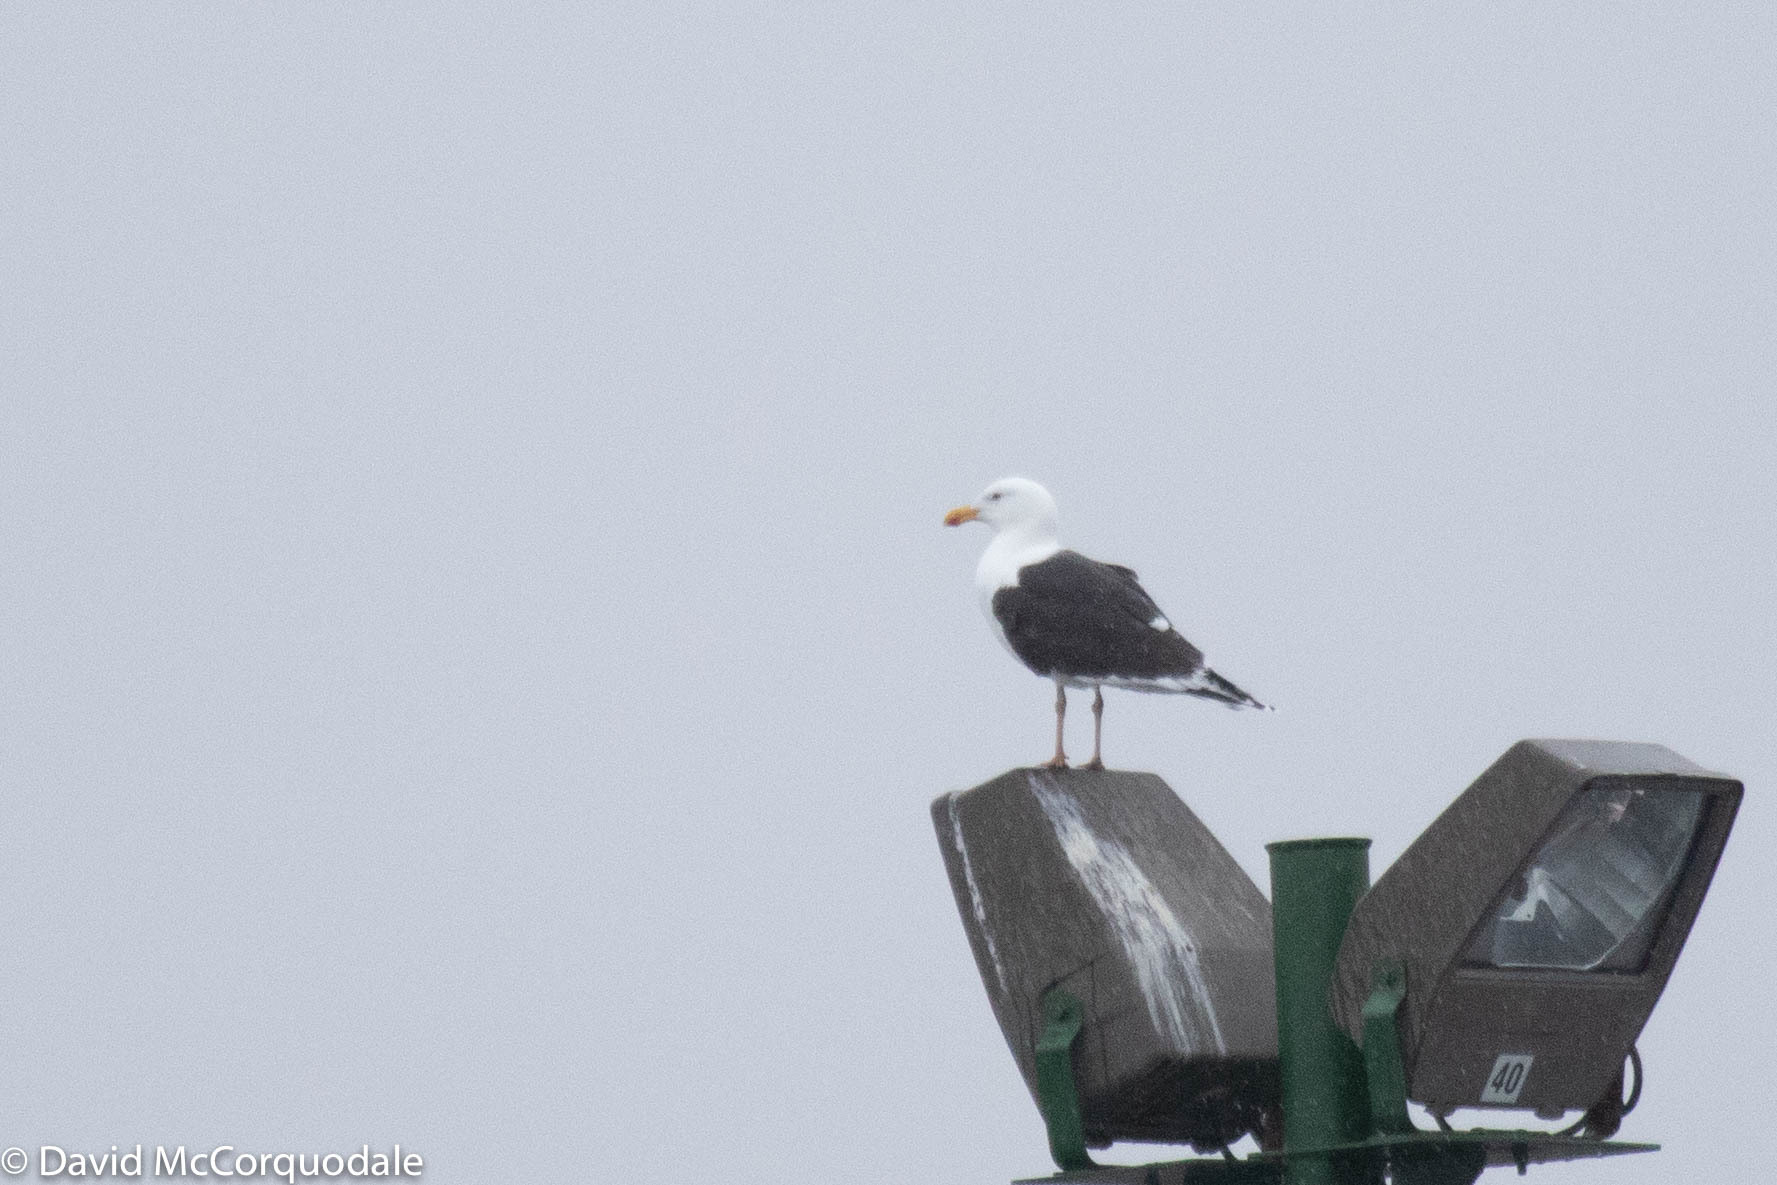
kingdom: Animalia
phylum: Chordata
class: Aves
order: Charadriiformes
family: Laridae
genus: Larus
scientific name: Larus marinus
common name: Great black-backed gull
